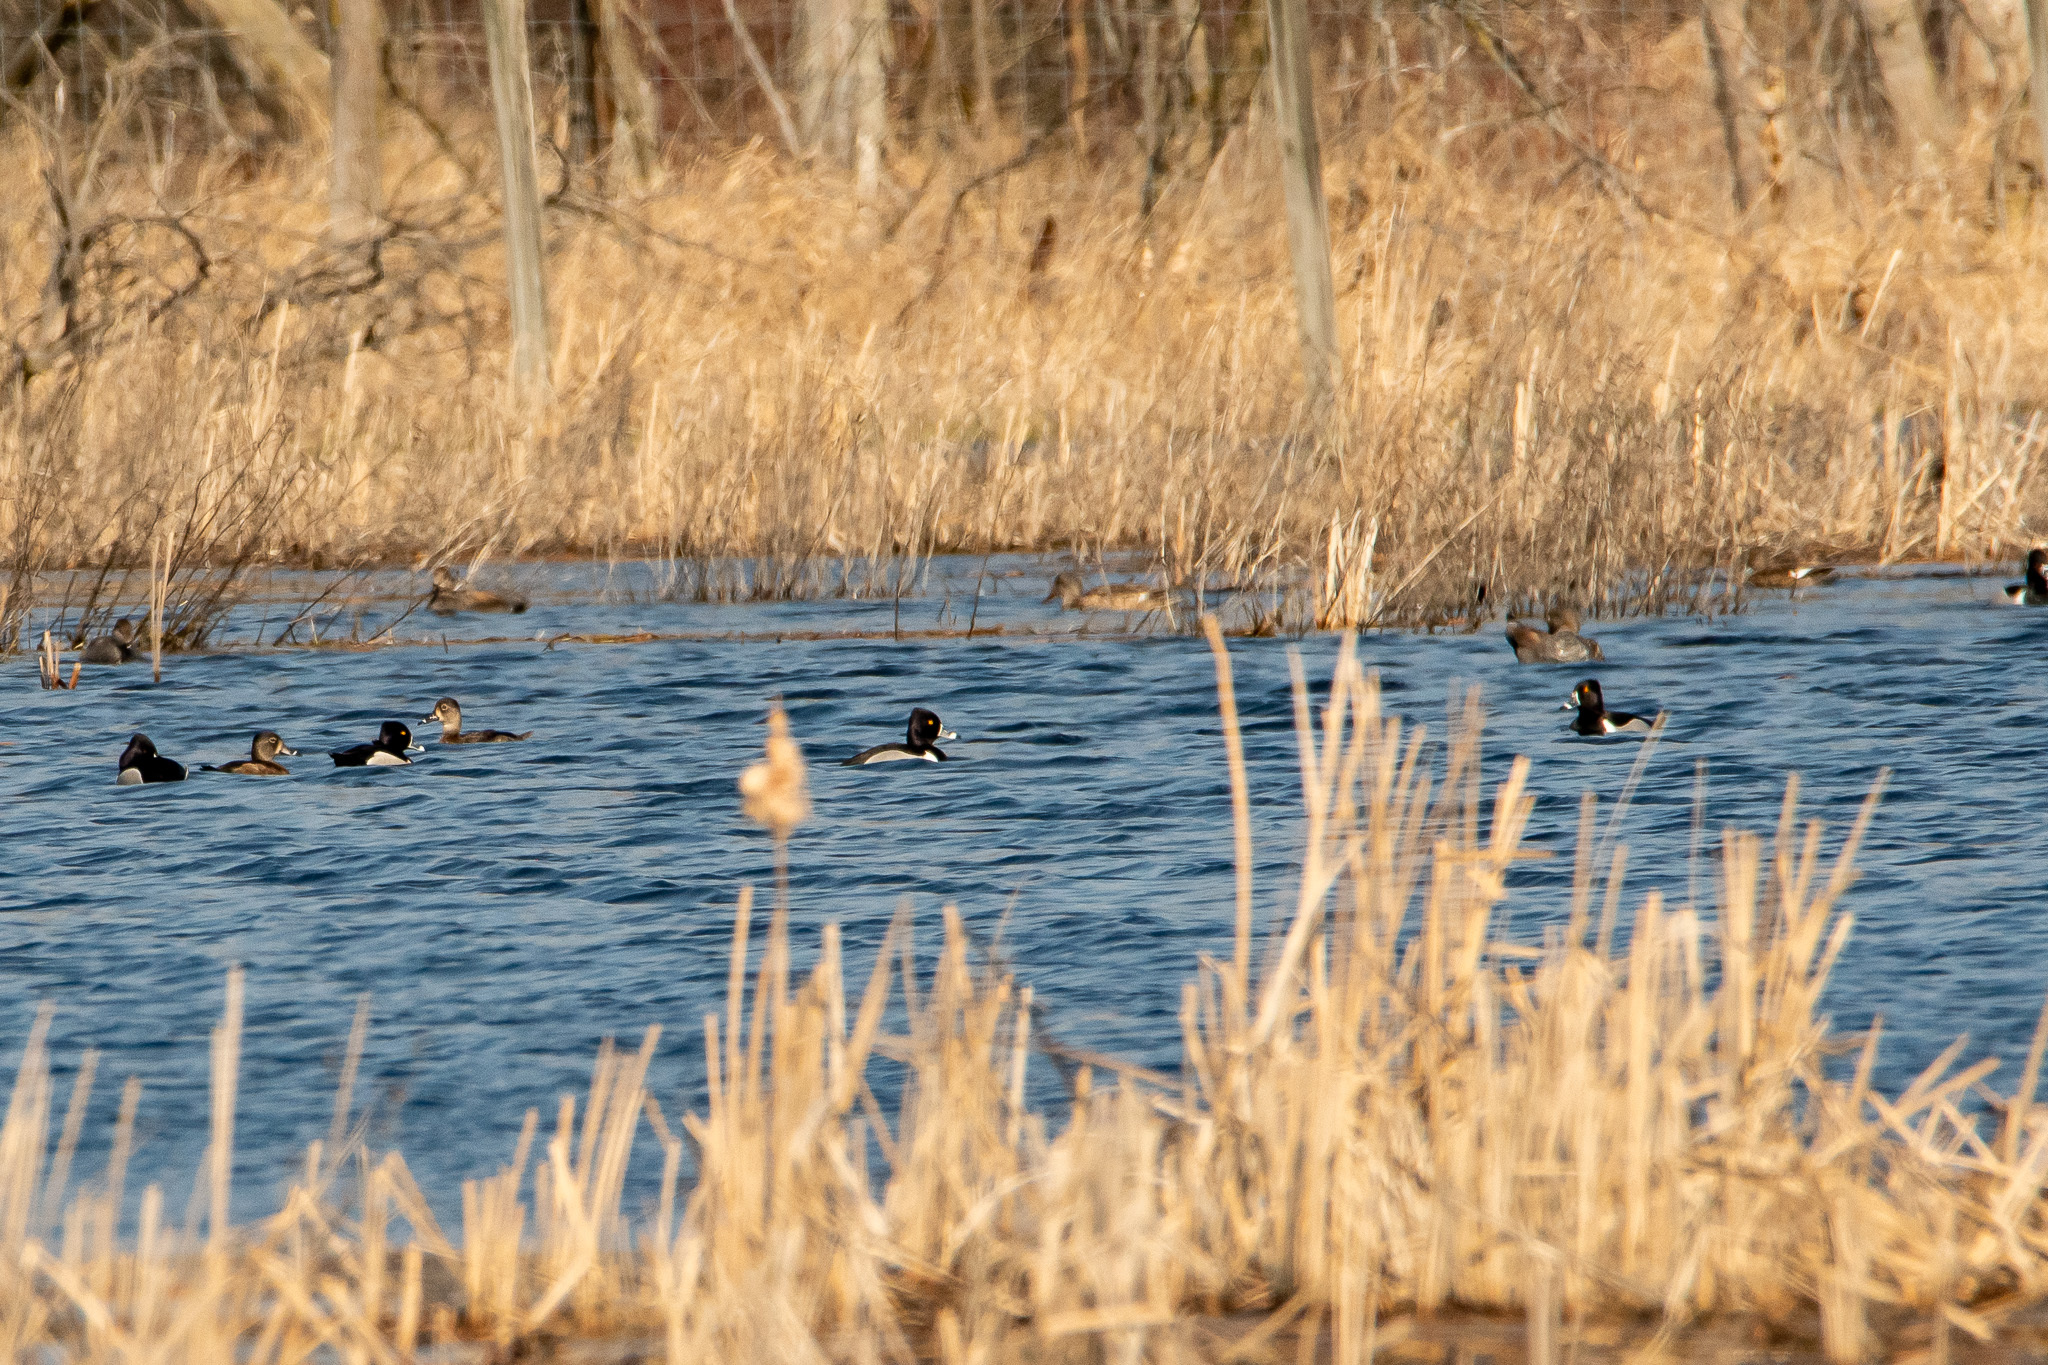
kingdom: Animalia
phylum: Chordata
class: Aves
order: Anseriformes
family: Anatidae
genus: Aythya
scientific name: Aythya collaris
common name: Ring-necked duck
